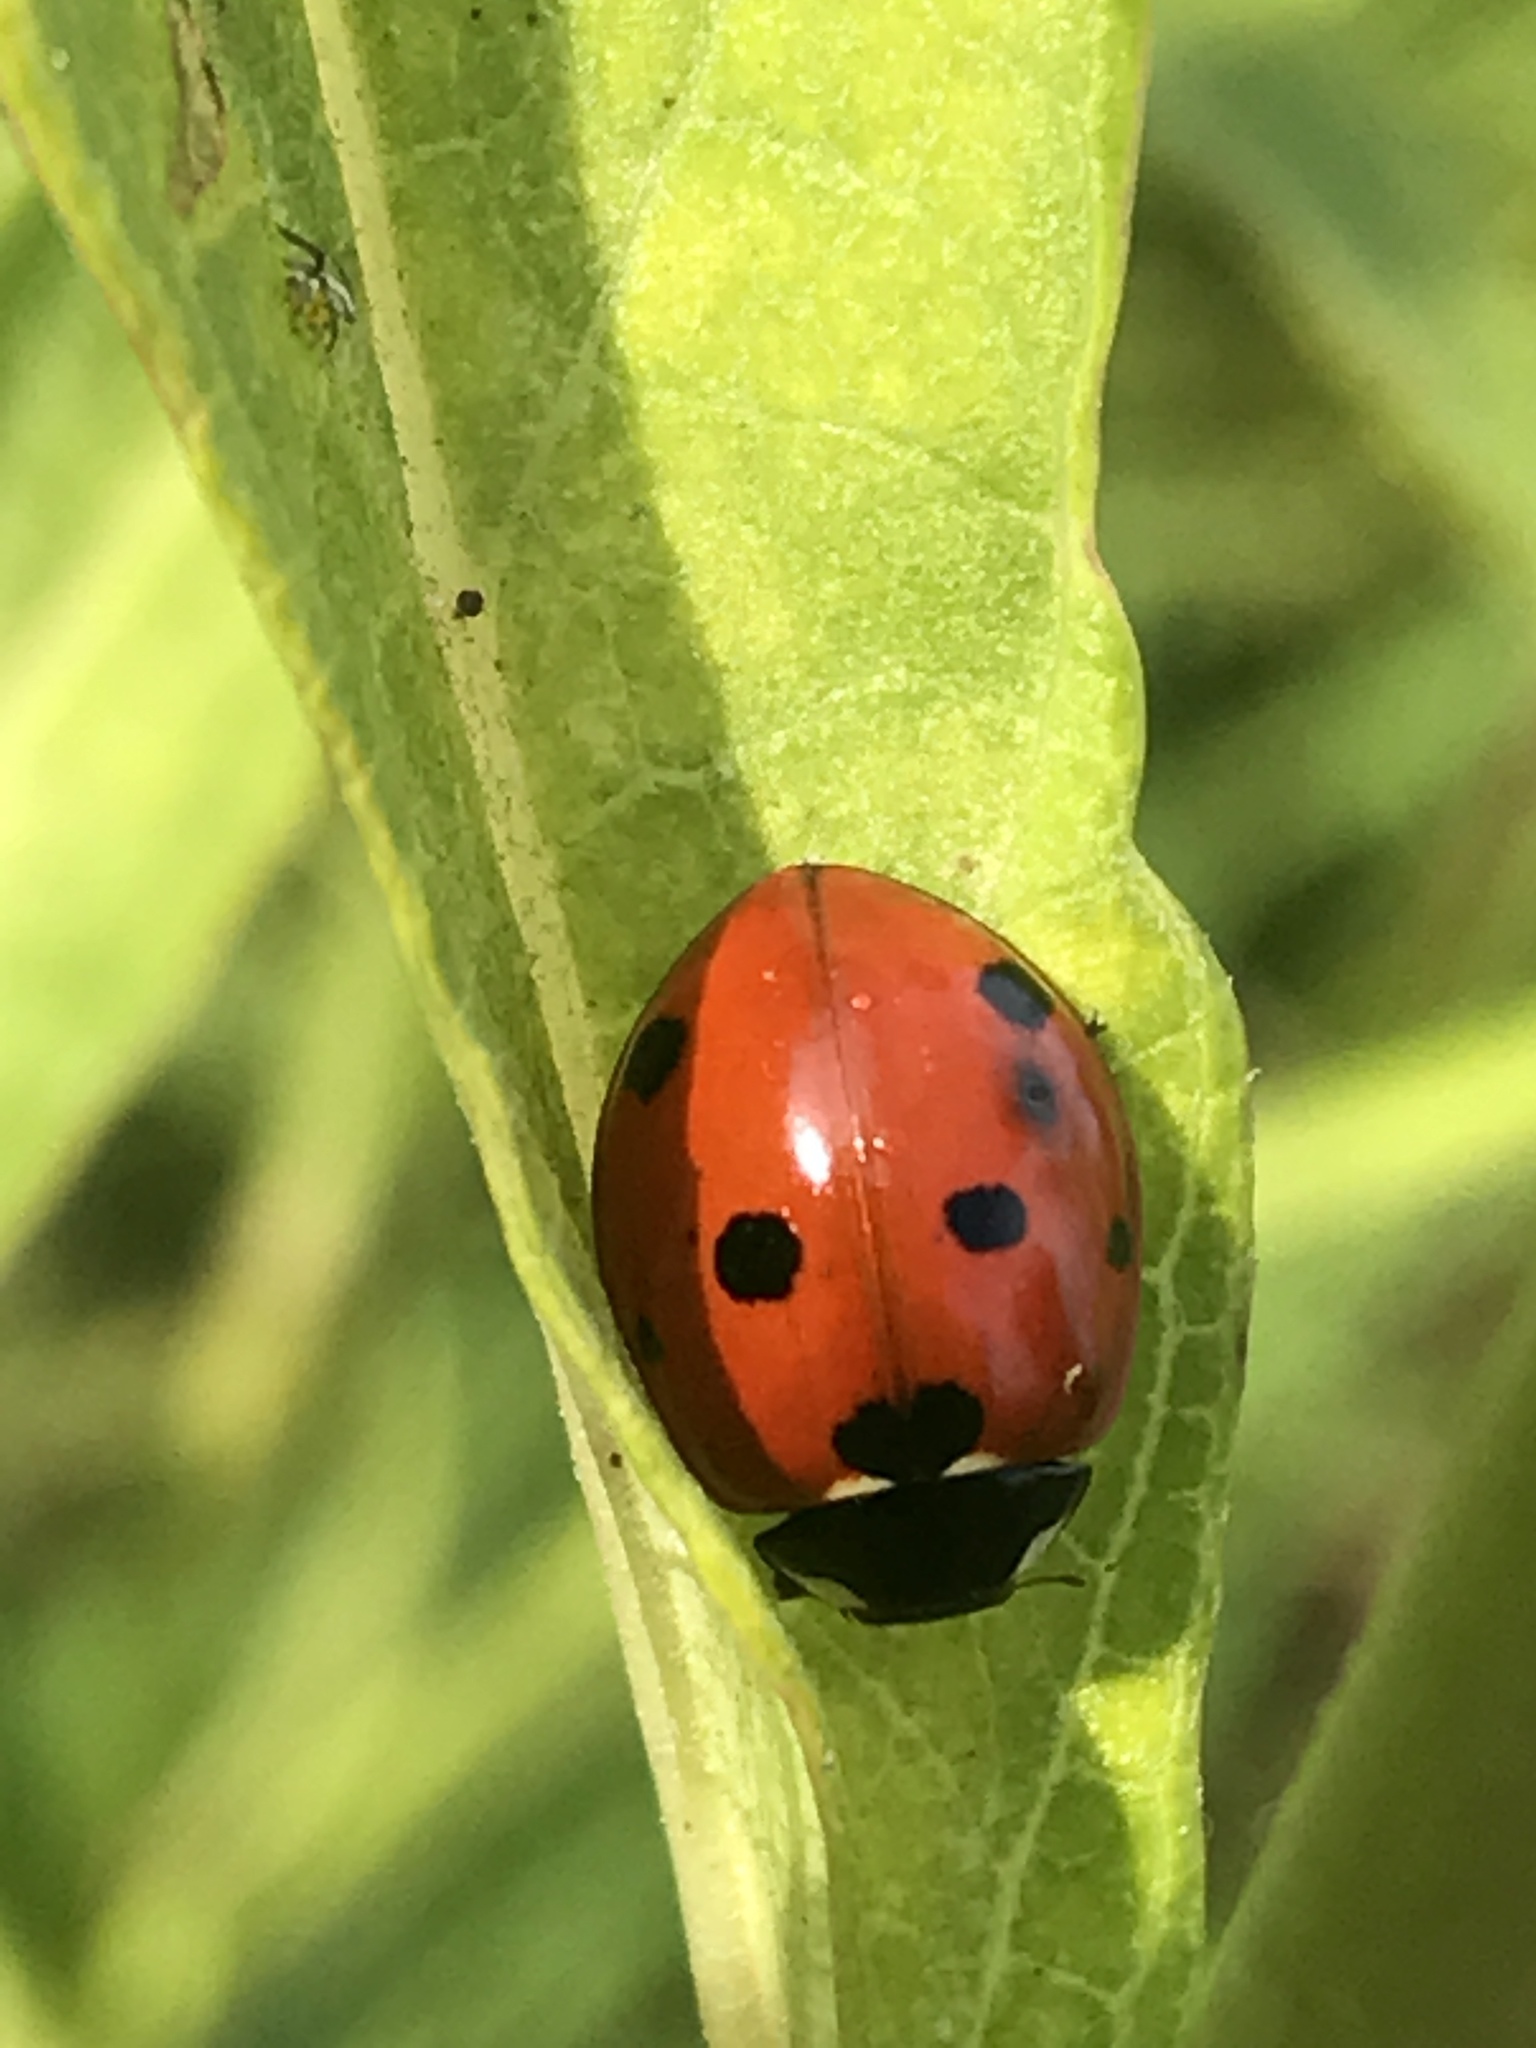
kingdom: Animalia
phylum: Arthropoda
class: Insecta
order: Coleoptera
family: Coccinellidae
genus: Coccinella
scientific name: Coccinella septempunctata
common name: Sevenspotted lady beetle
